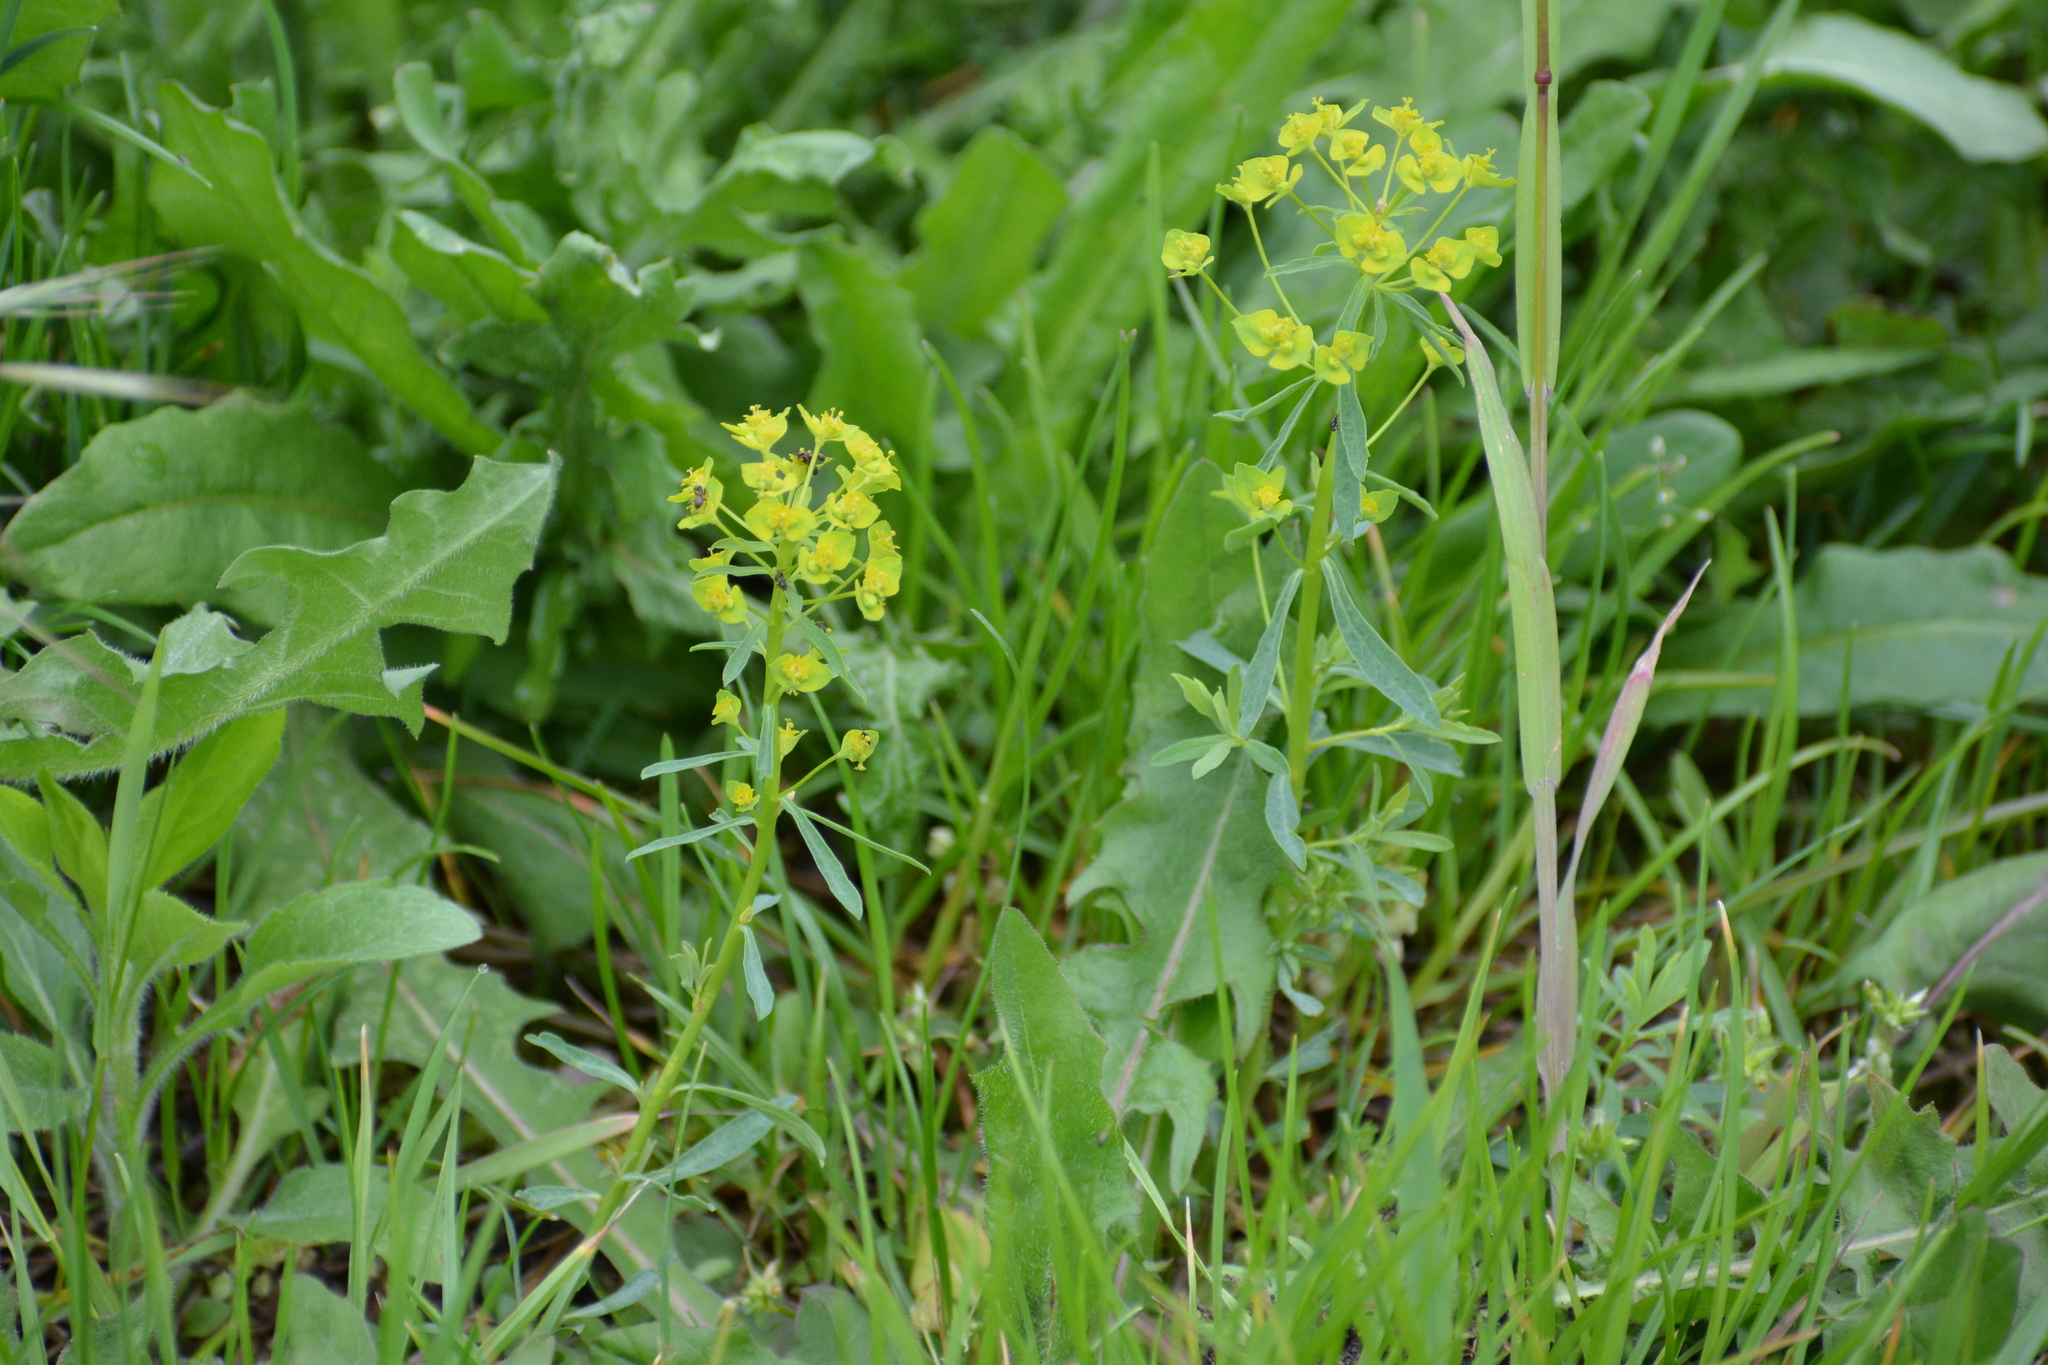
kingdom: Plantae
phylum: Tracheophyta
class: Magnoliopsida
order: Malpighiales
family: Euphorbiaceae
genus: Euphorbia
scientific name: Euphorbia esula
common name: Leafy spurge
